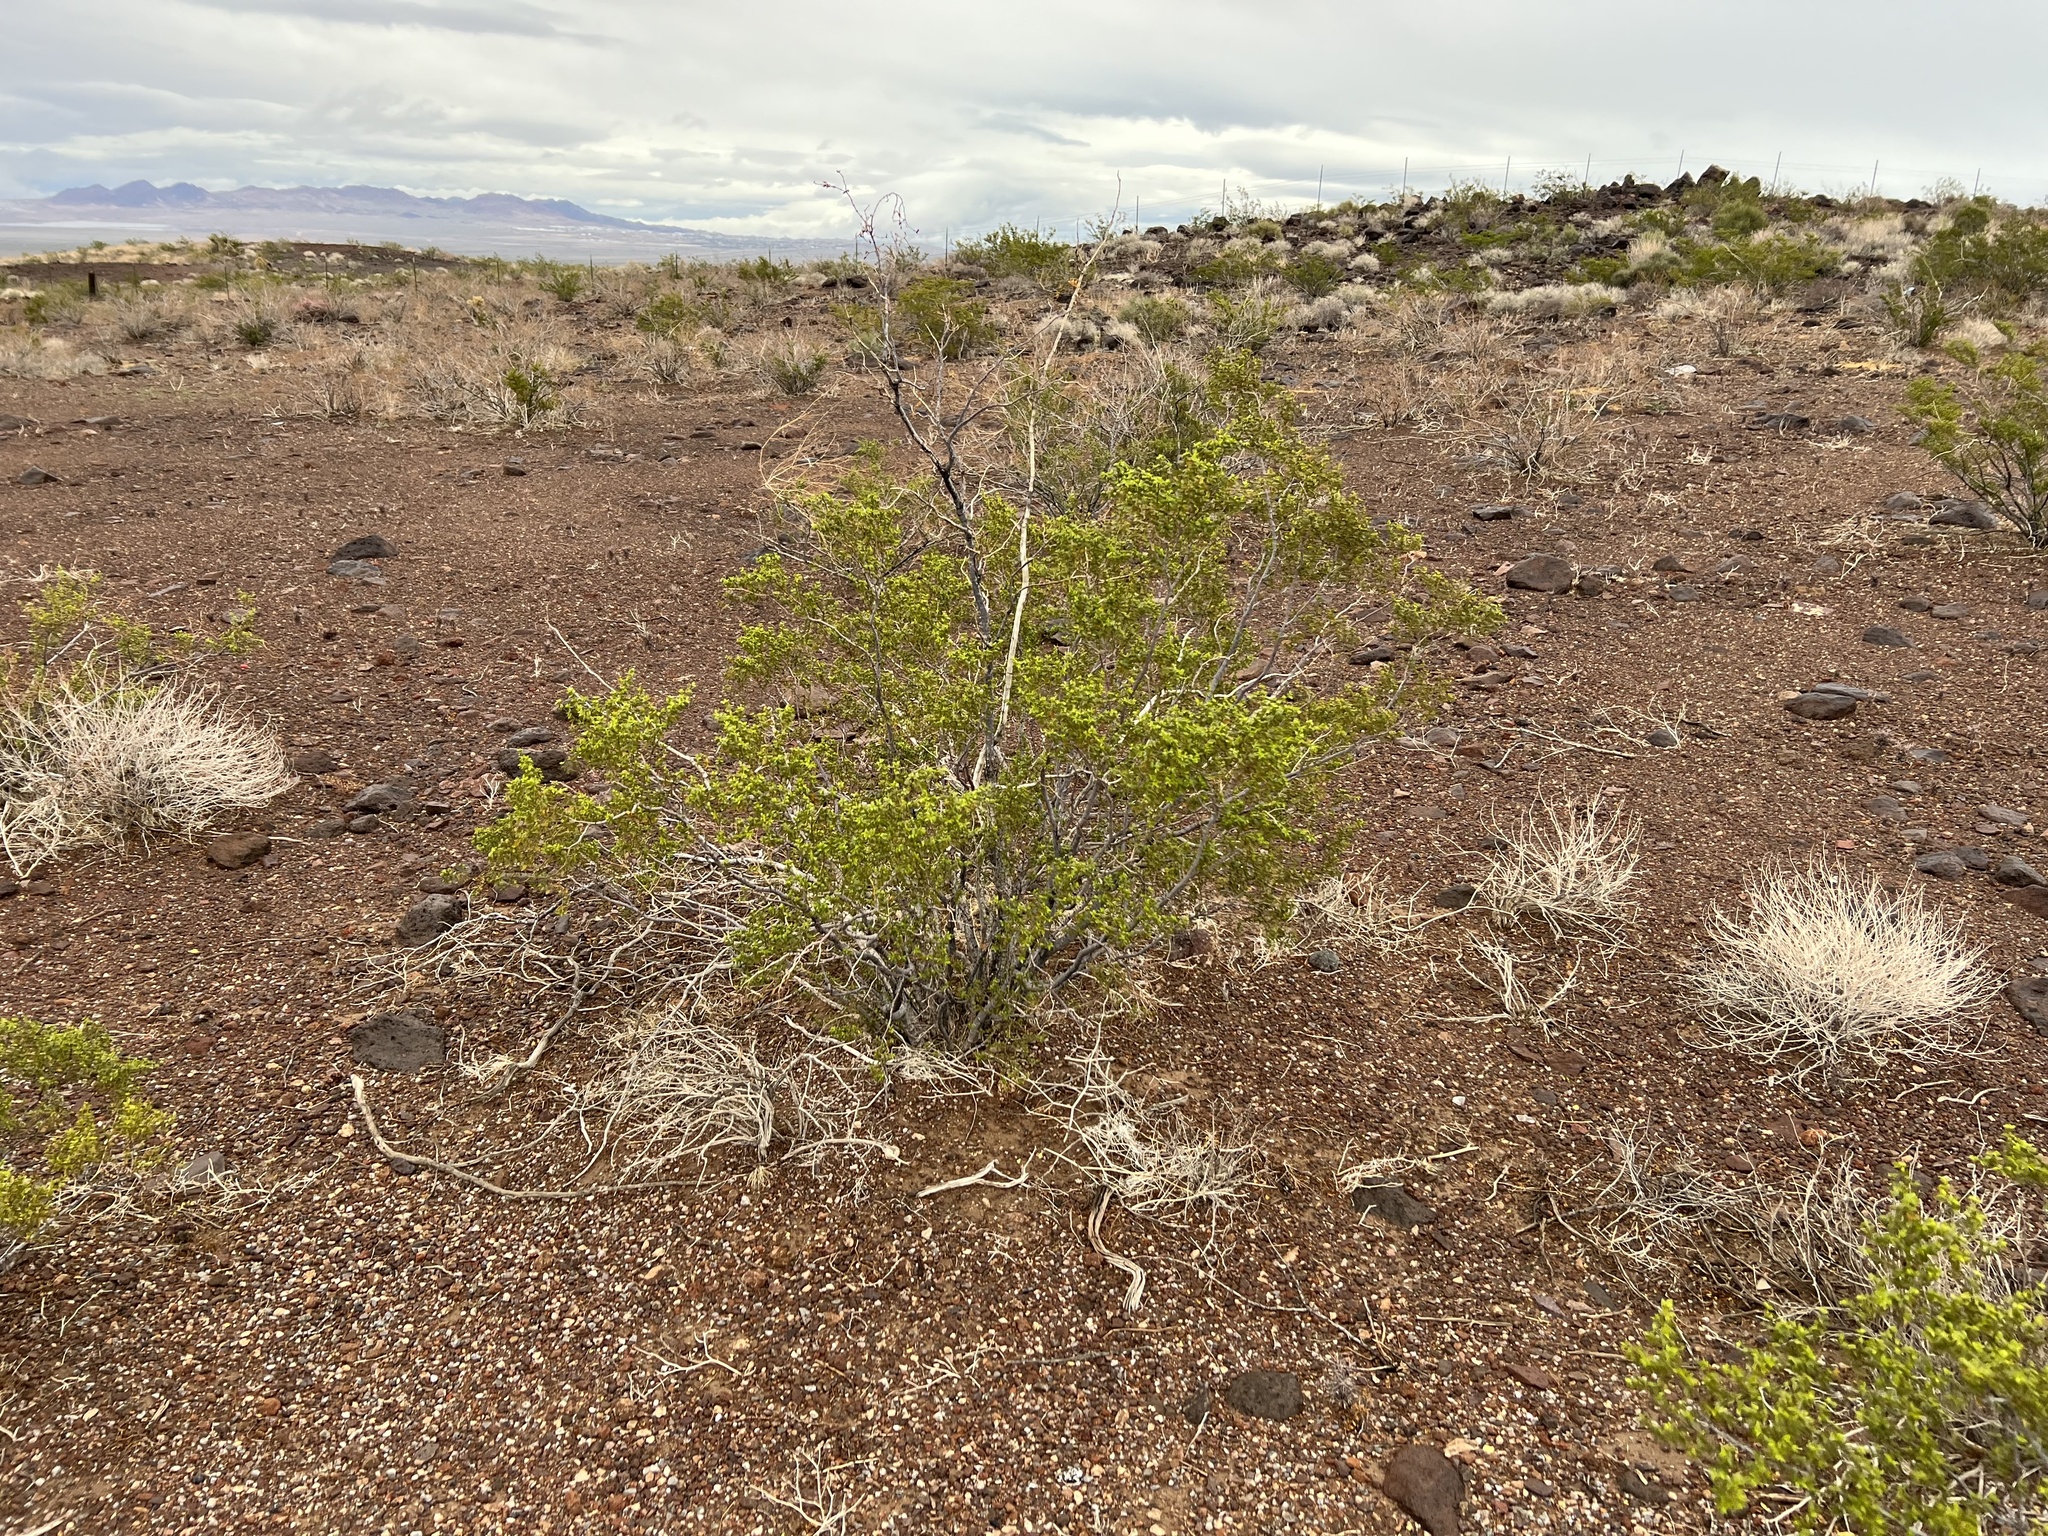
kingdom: Plantae
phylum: Tracheophyta
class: Magnoliopsida
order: Zygophyllales
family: Zygophyllaceae
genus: Larrea
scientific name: Larrea tridentata
